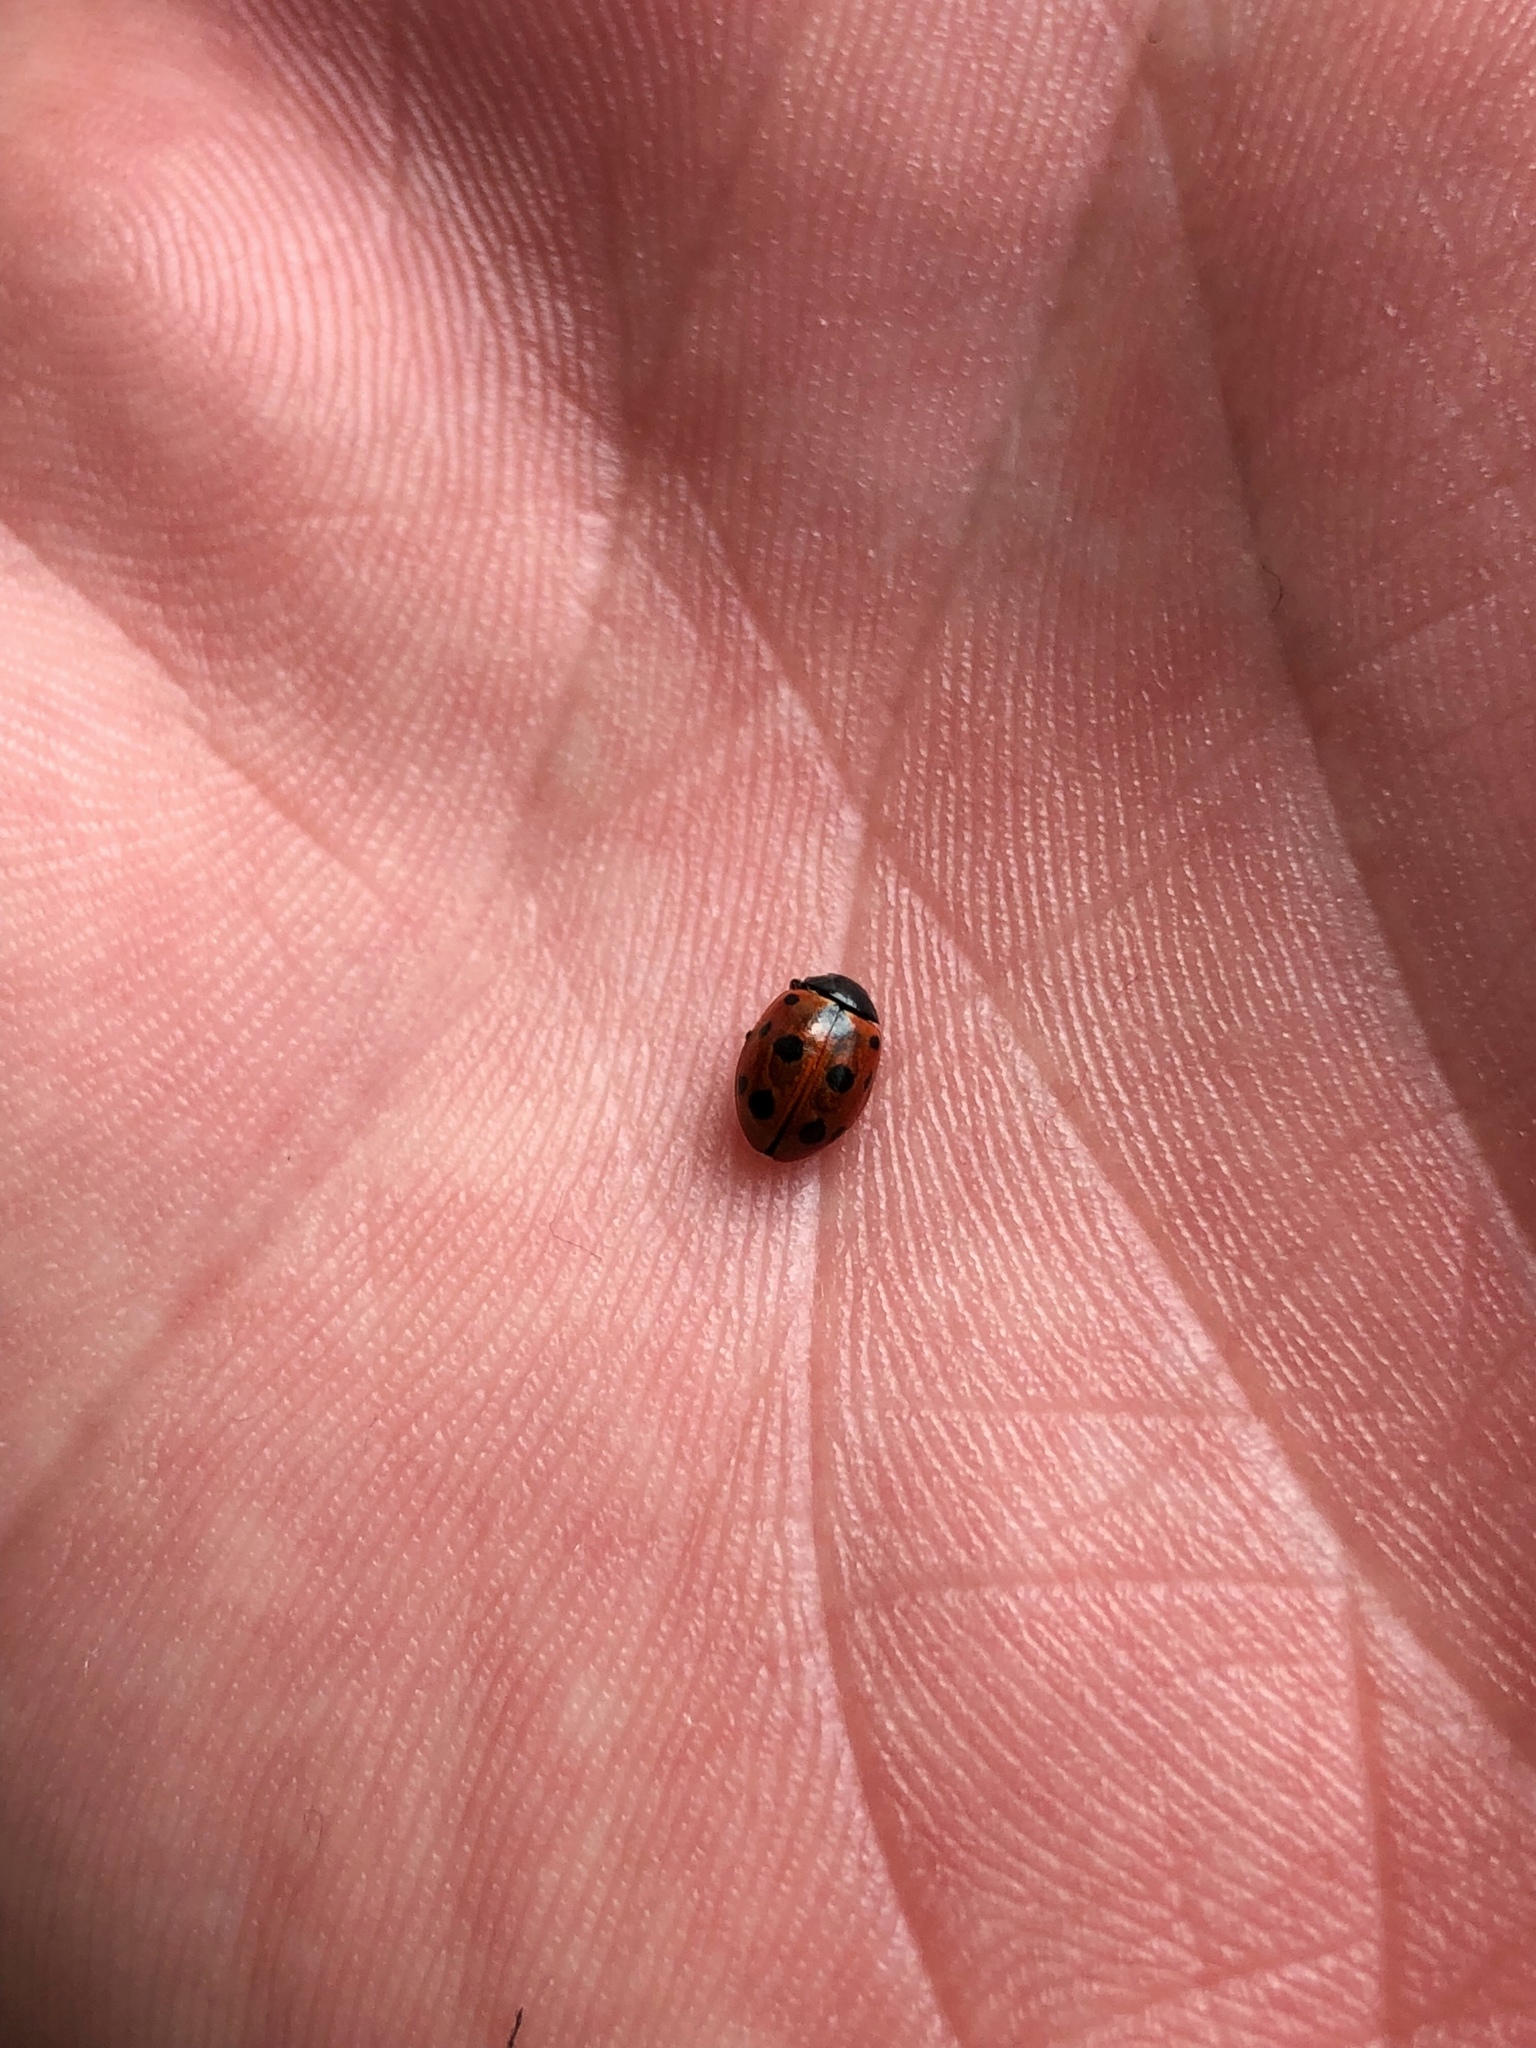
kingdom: Animalia
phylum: Arthropoda
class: Insecta
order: Coleoptera
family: Coccinellidae
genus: Coccinella
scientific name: Coccinella undecimpunctata
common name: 11-spot ladybird
